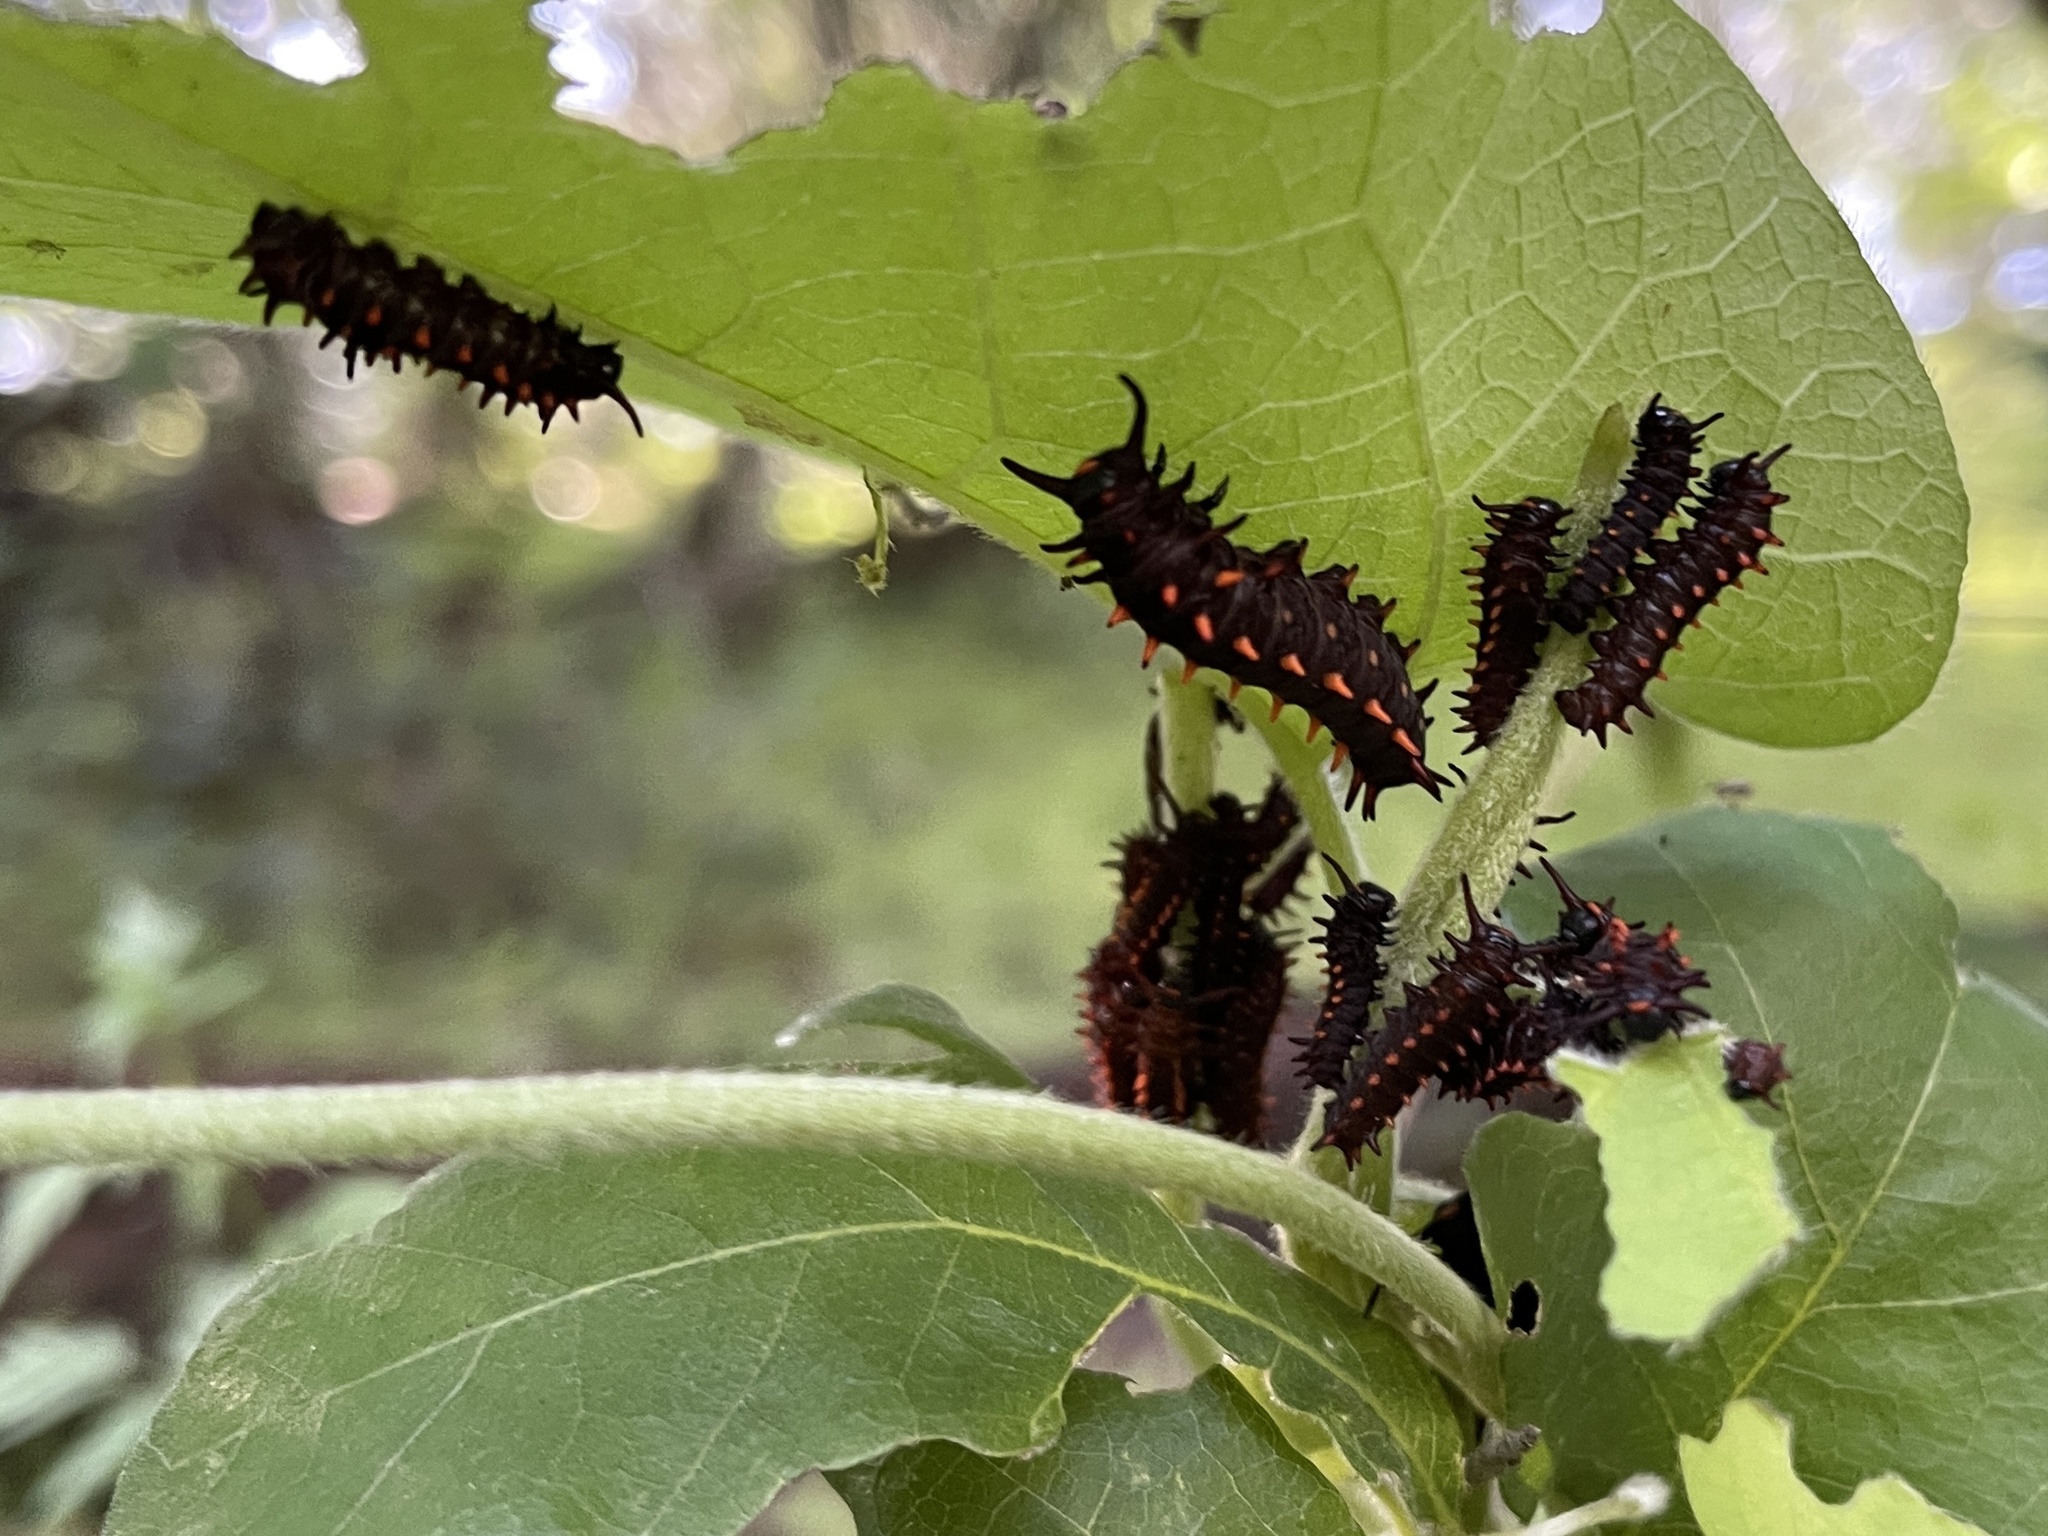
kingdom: Animalia
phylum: Arthropoda
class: Insecta
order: Lepidoptera
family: Papilionidae
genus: Battus
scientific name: Battus philenor
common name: Pipevine swallowtail
